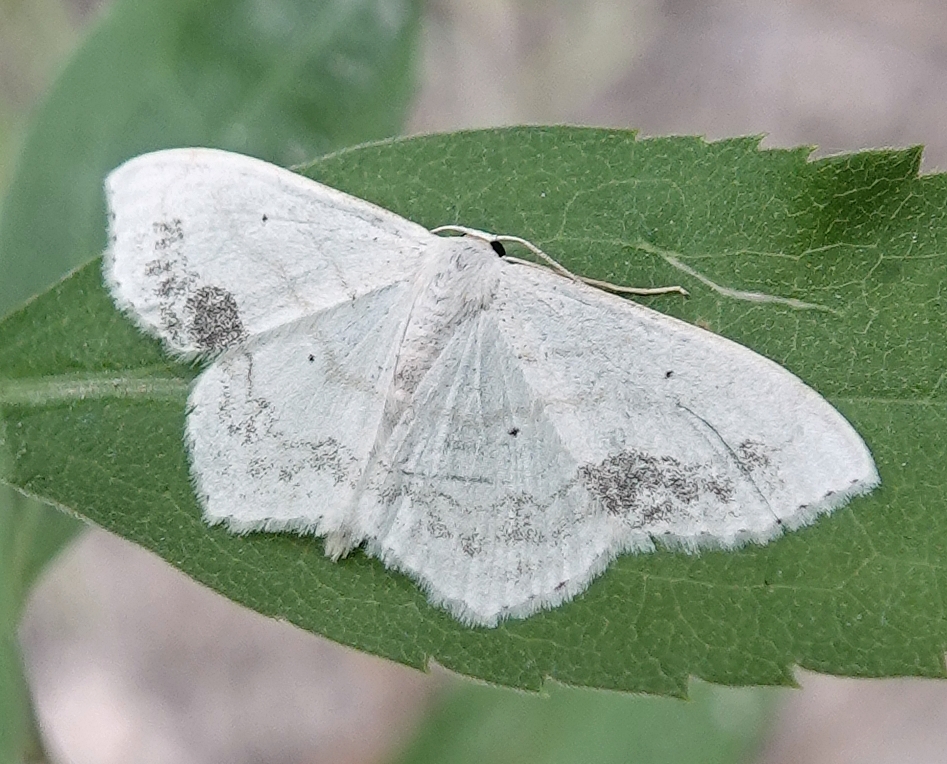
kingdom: Animalia
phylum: Arthropoda
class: Insecta
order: Lepidoptera
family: Geometridae
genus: Scopula
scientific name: Scopula limboundata
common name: Large lace border
